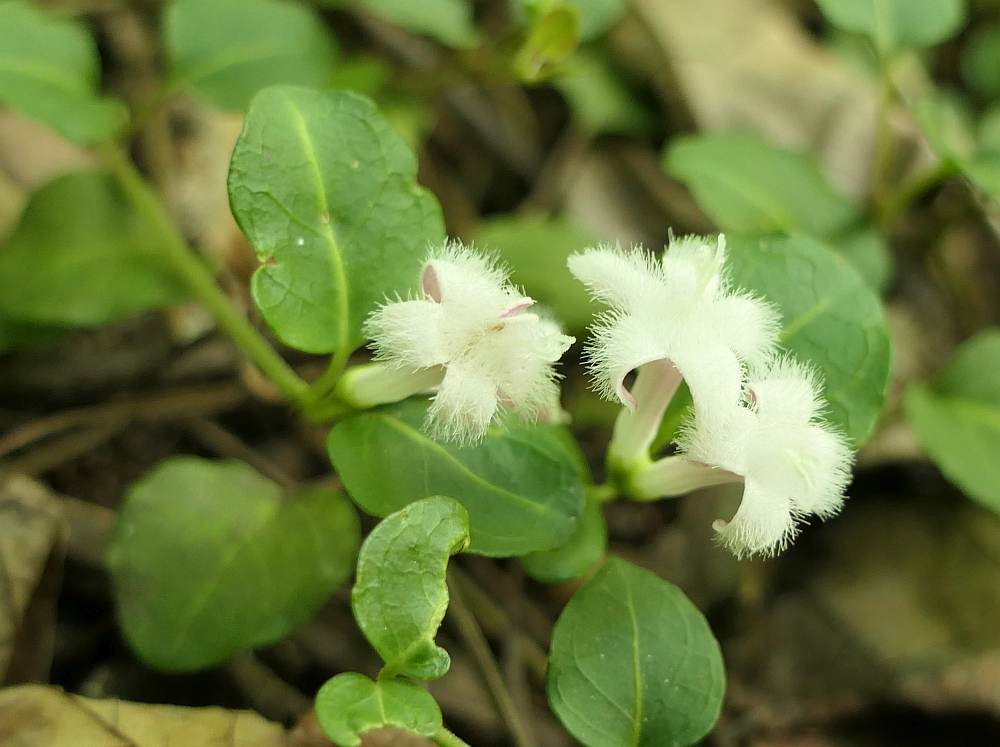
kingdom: Plantae
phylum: Tracheophyta
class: Magnoliopsida
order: Gentianales
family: Rubiaceae
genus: Mitchella
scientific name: Mitchella repens
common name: Partridge-berry
